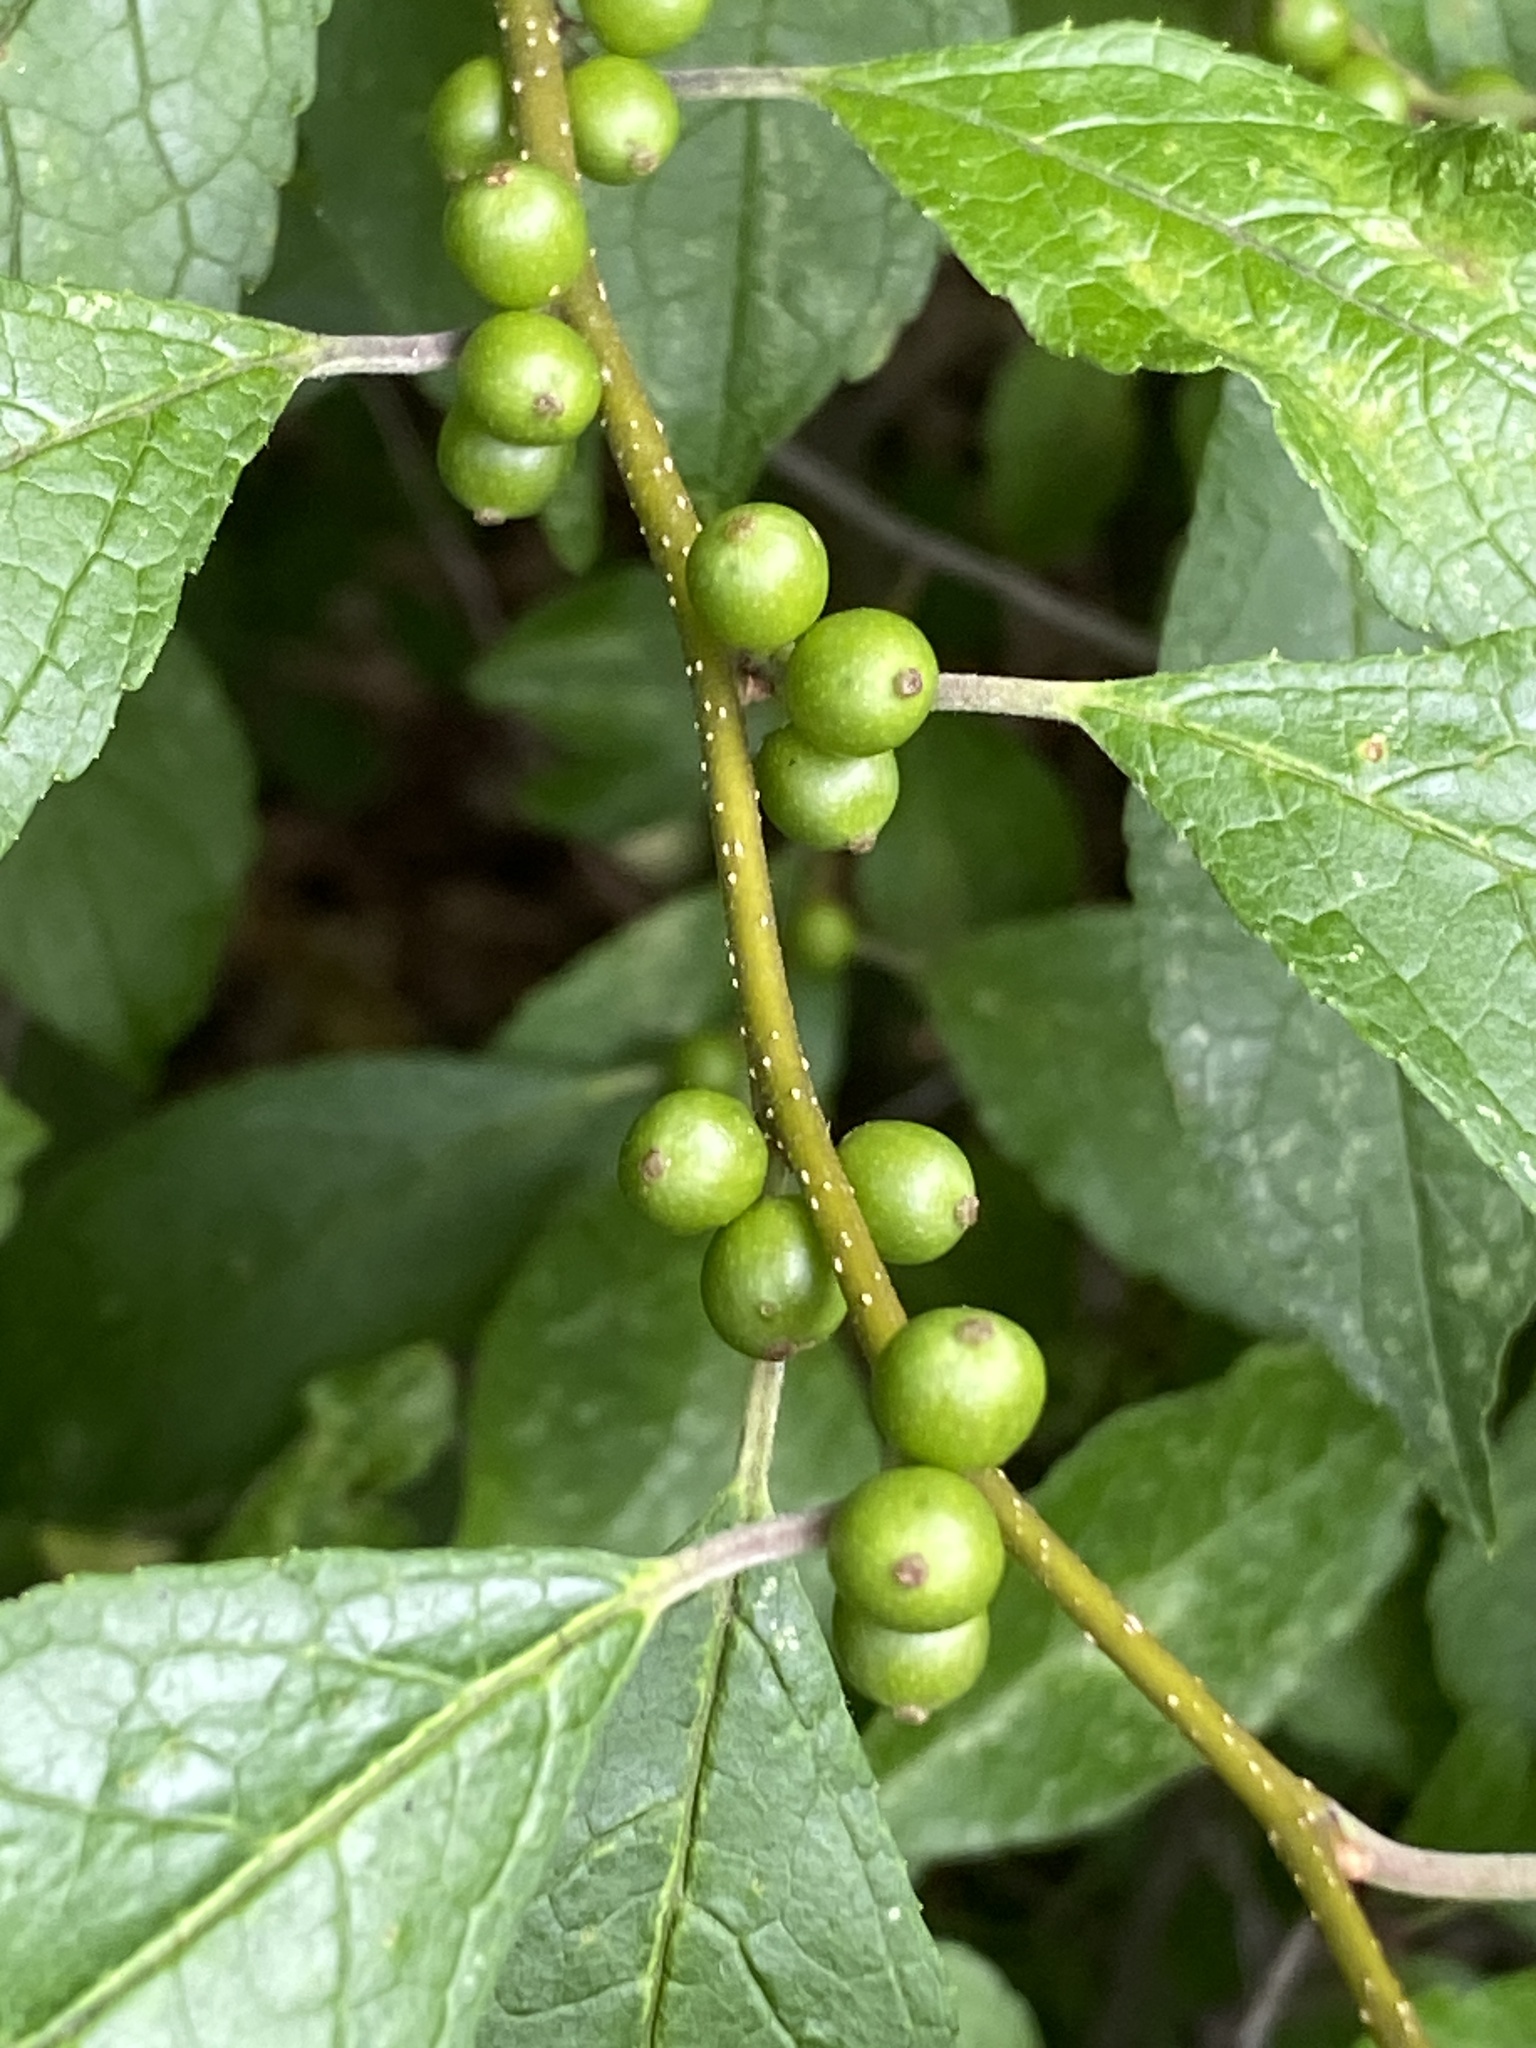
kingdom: Plantae
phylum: Tracheophyta
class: Magnoliopsida
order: Aquifoliales
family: Aquifoliaceae
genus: Ilex
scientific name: Ilex verticillata
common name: Virginia winterberry
